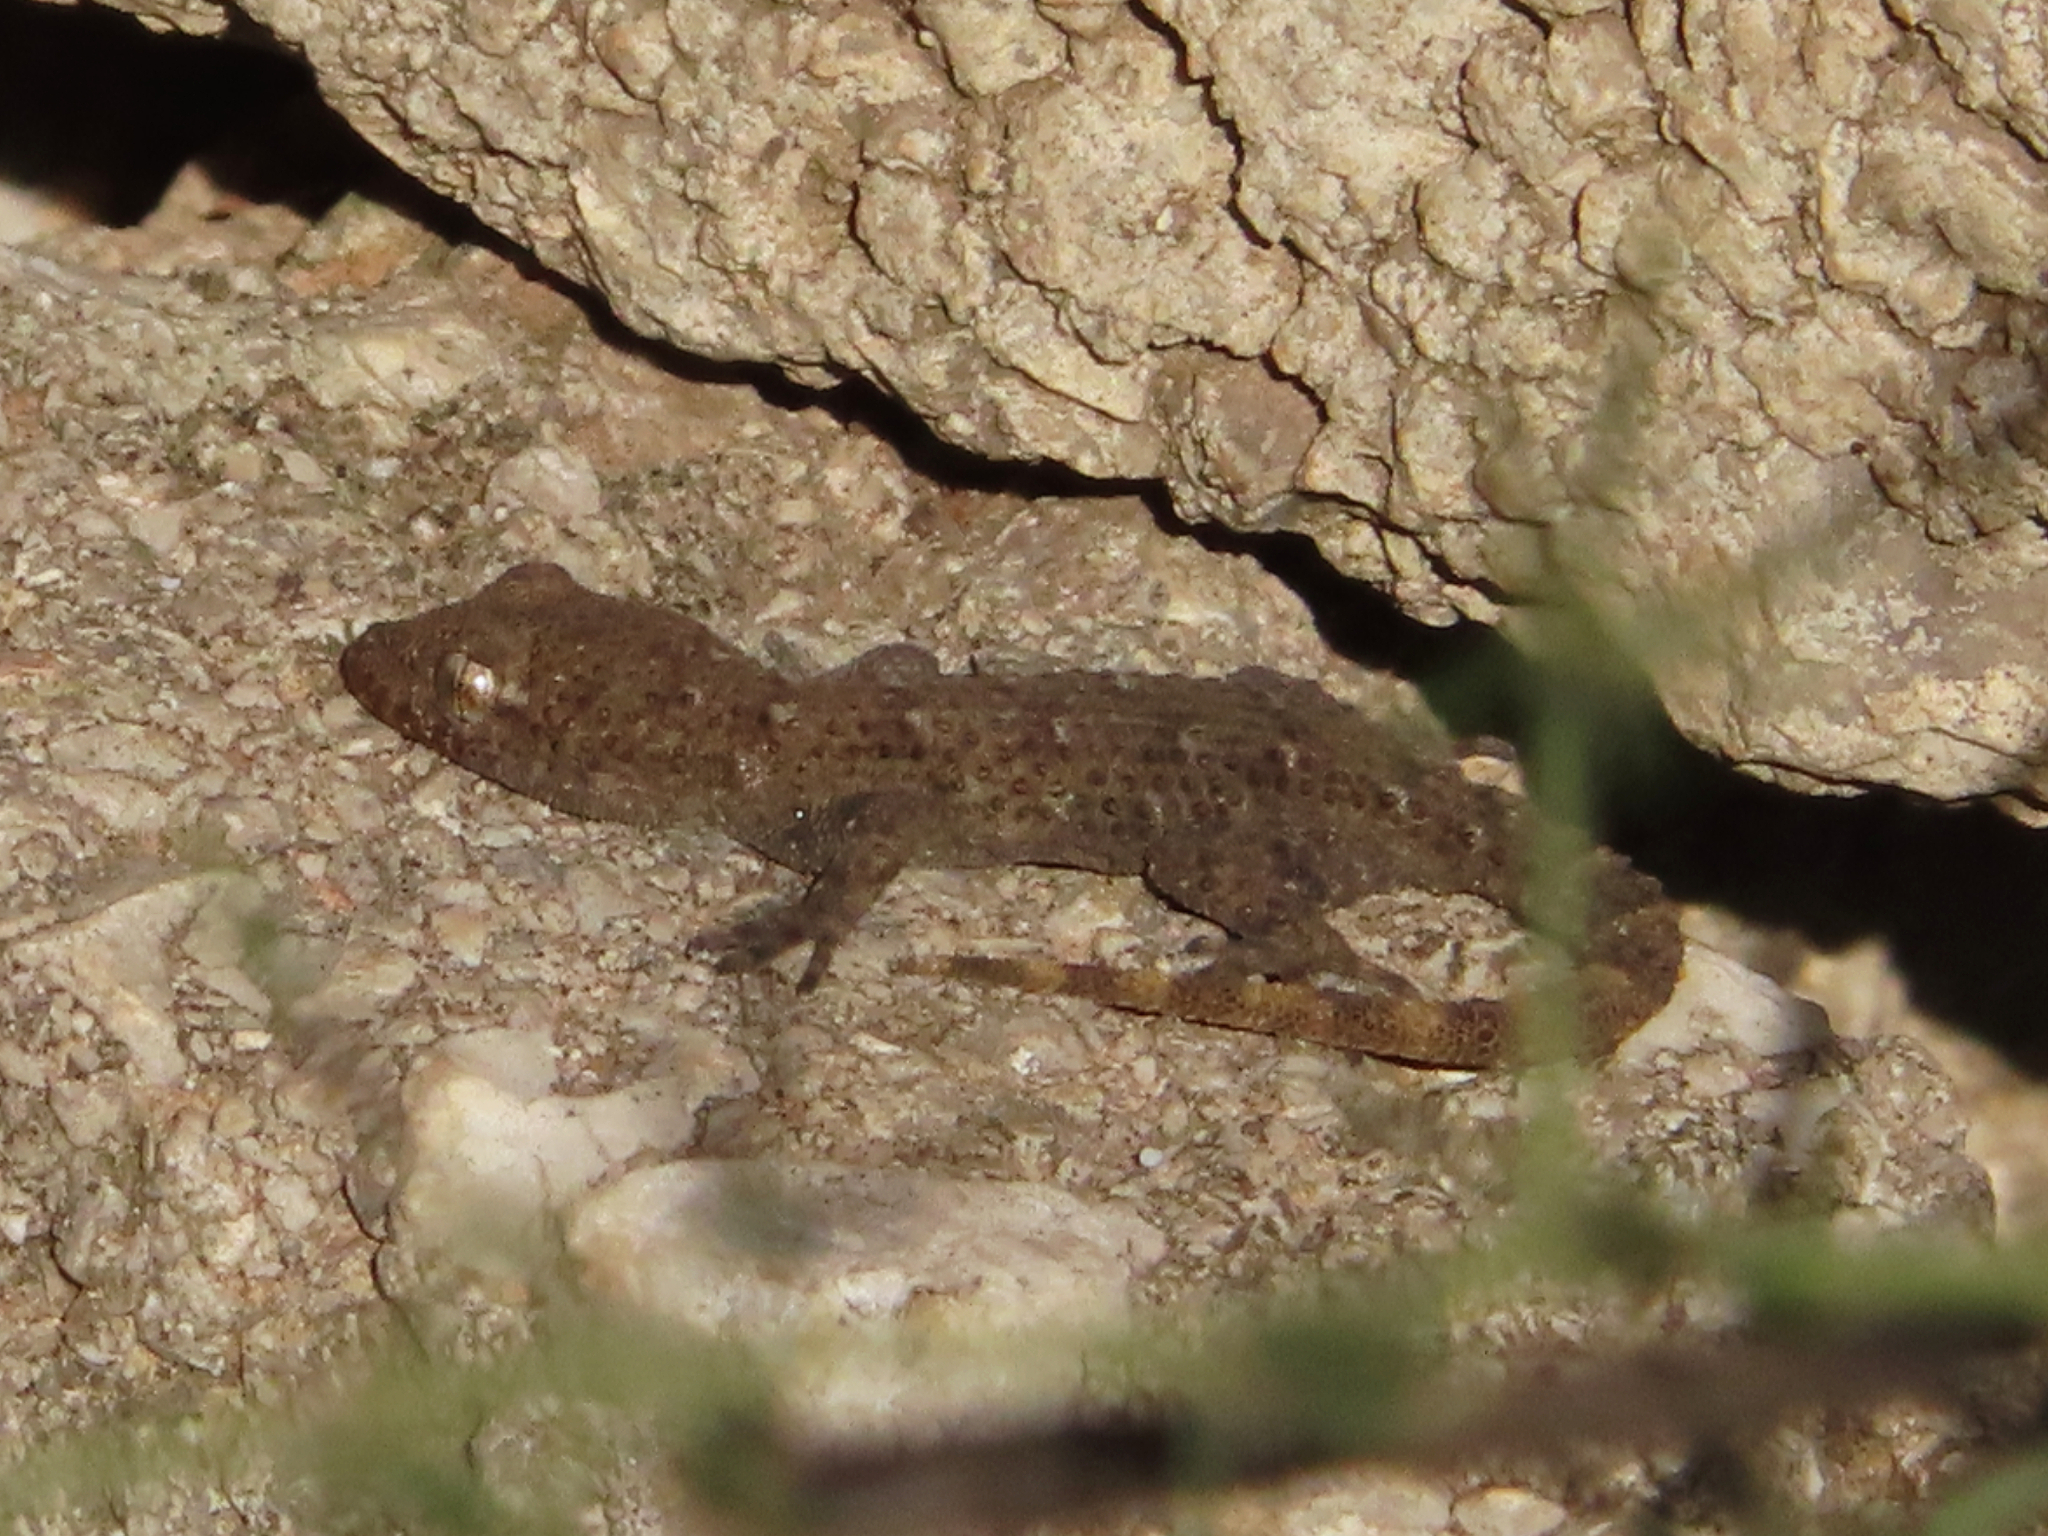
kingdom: Animalia
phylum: Chordata
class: Squamata
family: Gekkonidae
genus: Mediodactylus
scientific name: Mediodactylus kotschyi
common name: Kotschy's gecko
